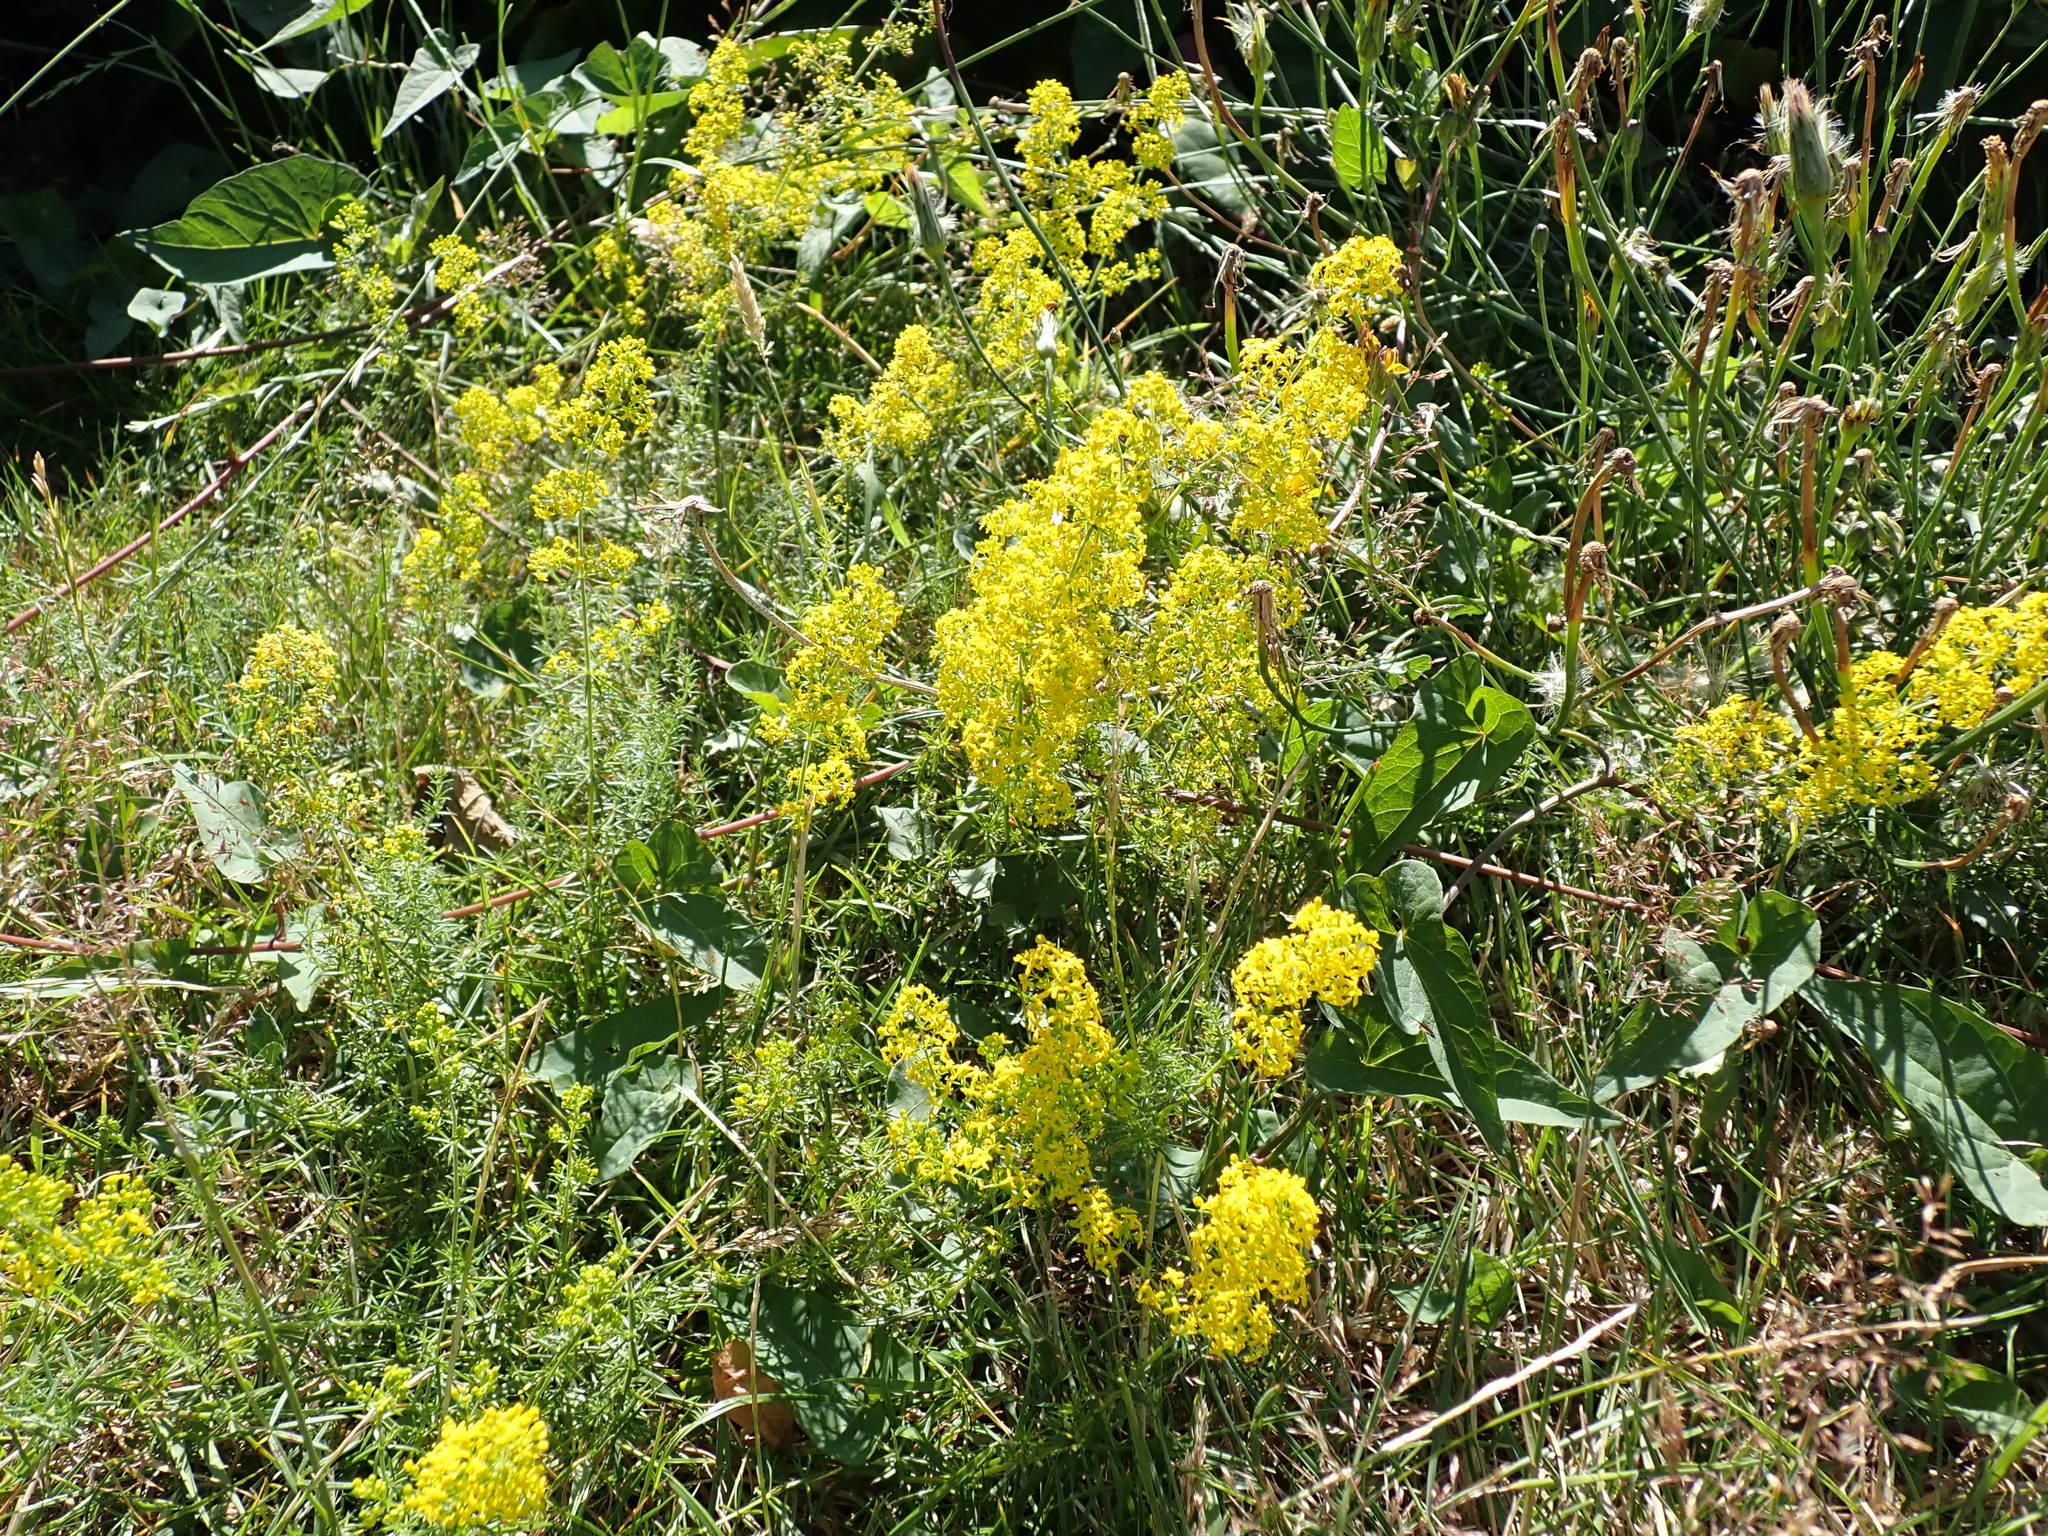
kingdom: Plantae
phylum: Tracheophyta
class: Magnoliopsida
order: Gentianales
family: Rubiaceae
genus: Galium
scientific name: Galium verum
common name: Lady's bedstraw
